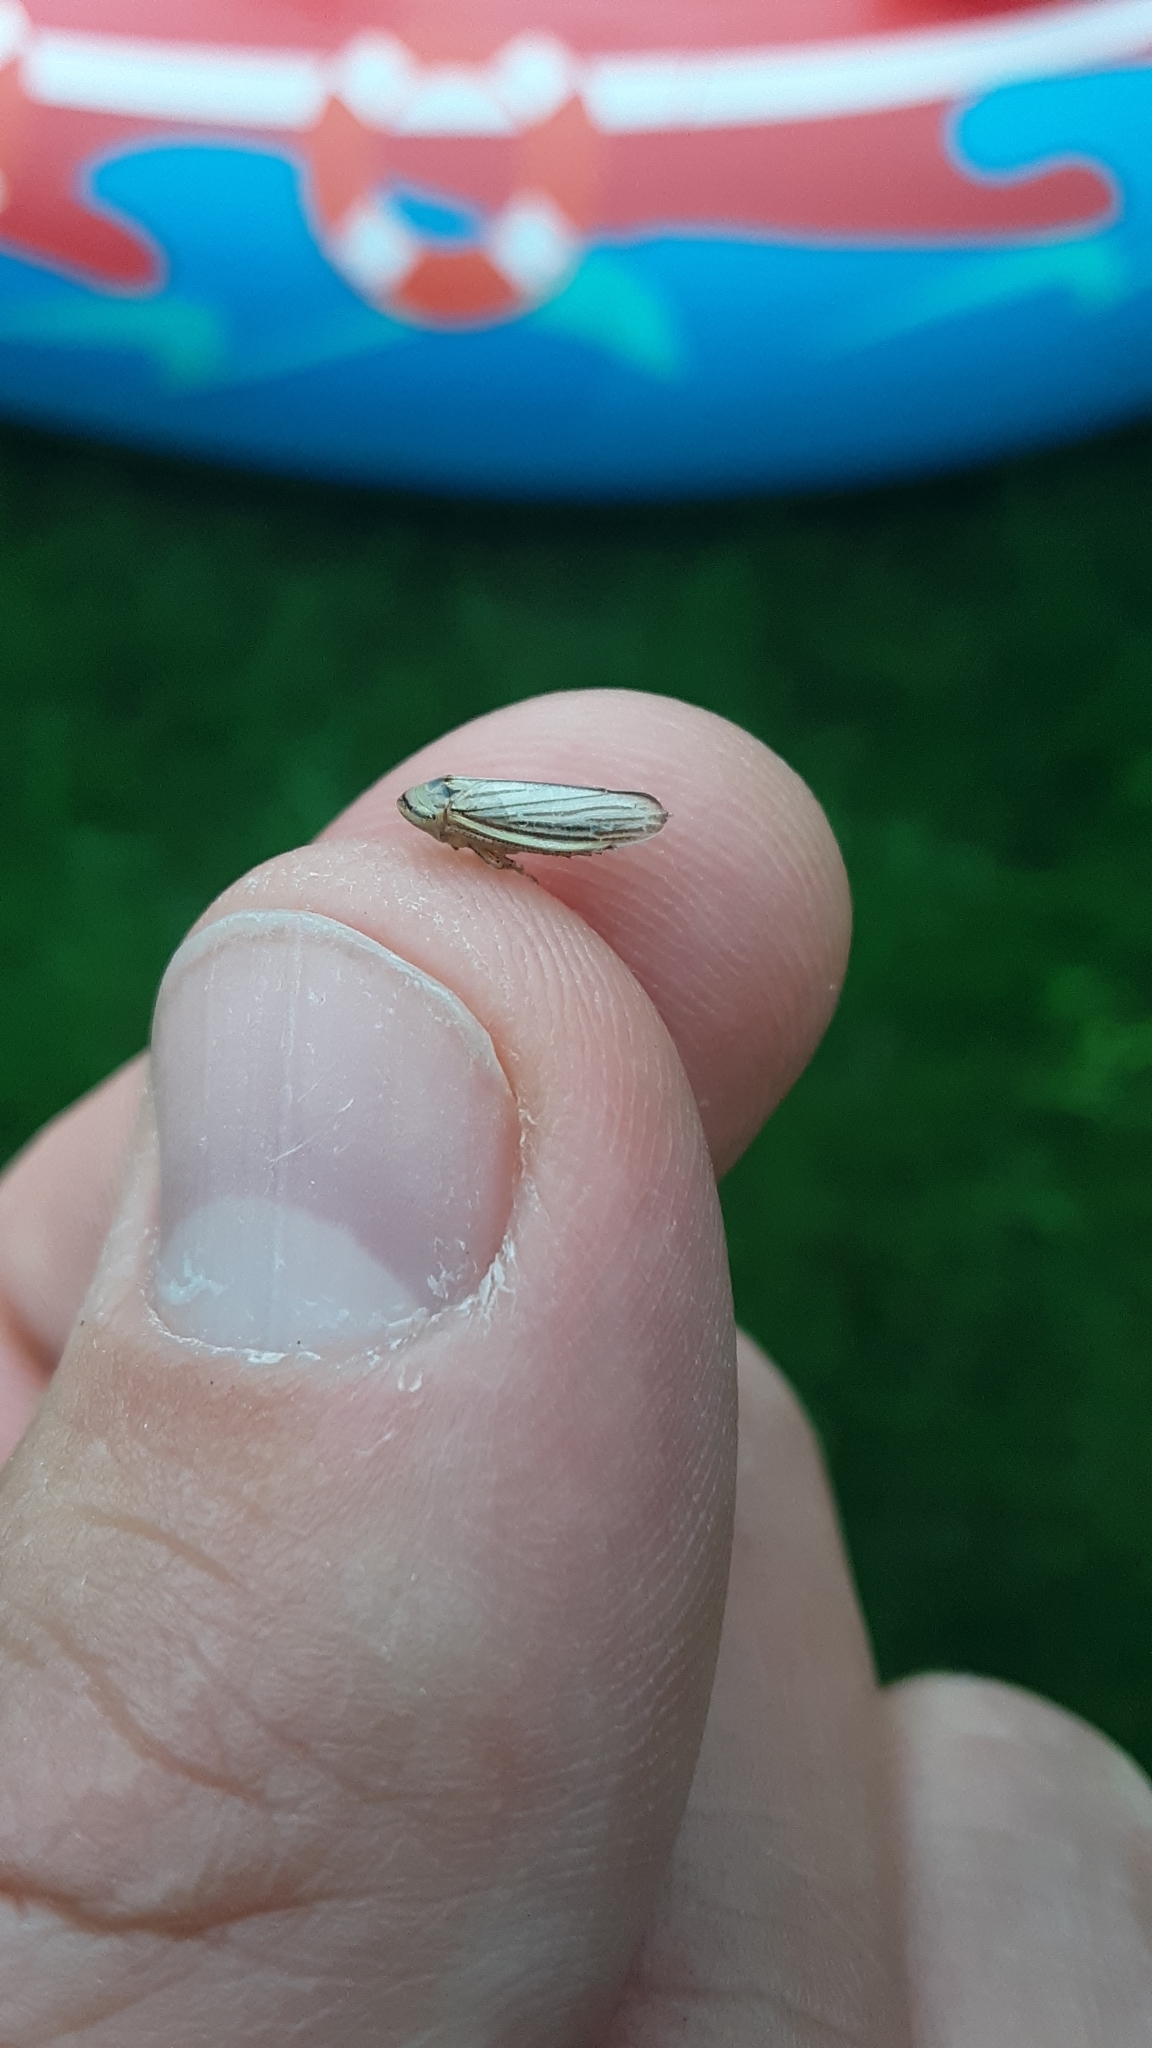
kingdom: Animalia
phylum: Arthropoda
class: Insecta
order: Hemiptera
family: Cicadellidae
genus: Athysanus
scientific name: Athysanus argentarius
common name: Silver leafhopper
